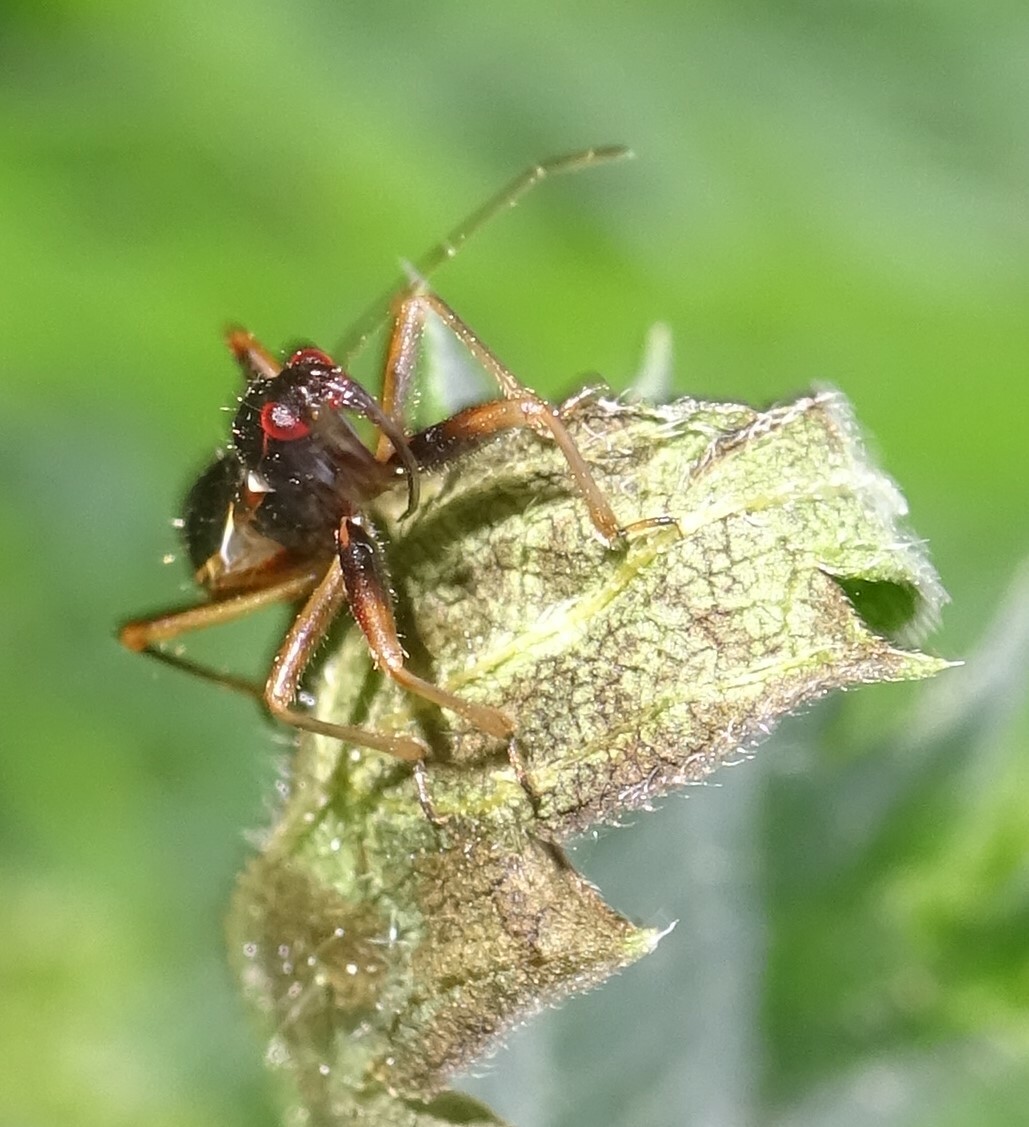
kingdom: Animalia
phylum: Arthropoda
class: Insecta
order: Hemiptera
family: Nabidae
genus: Himacerus
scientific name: Himacerus mirmicoides
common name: Ant damsel bug
